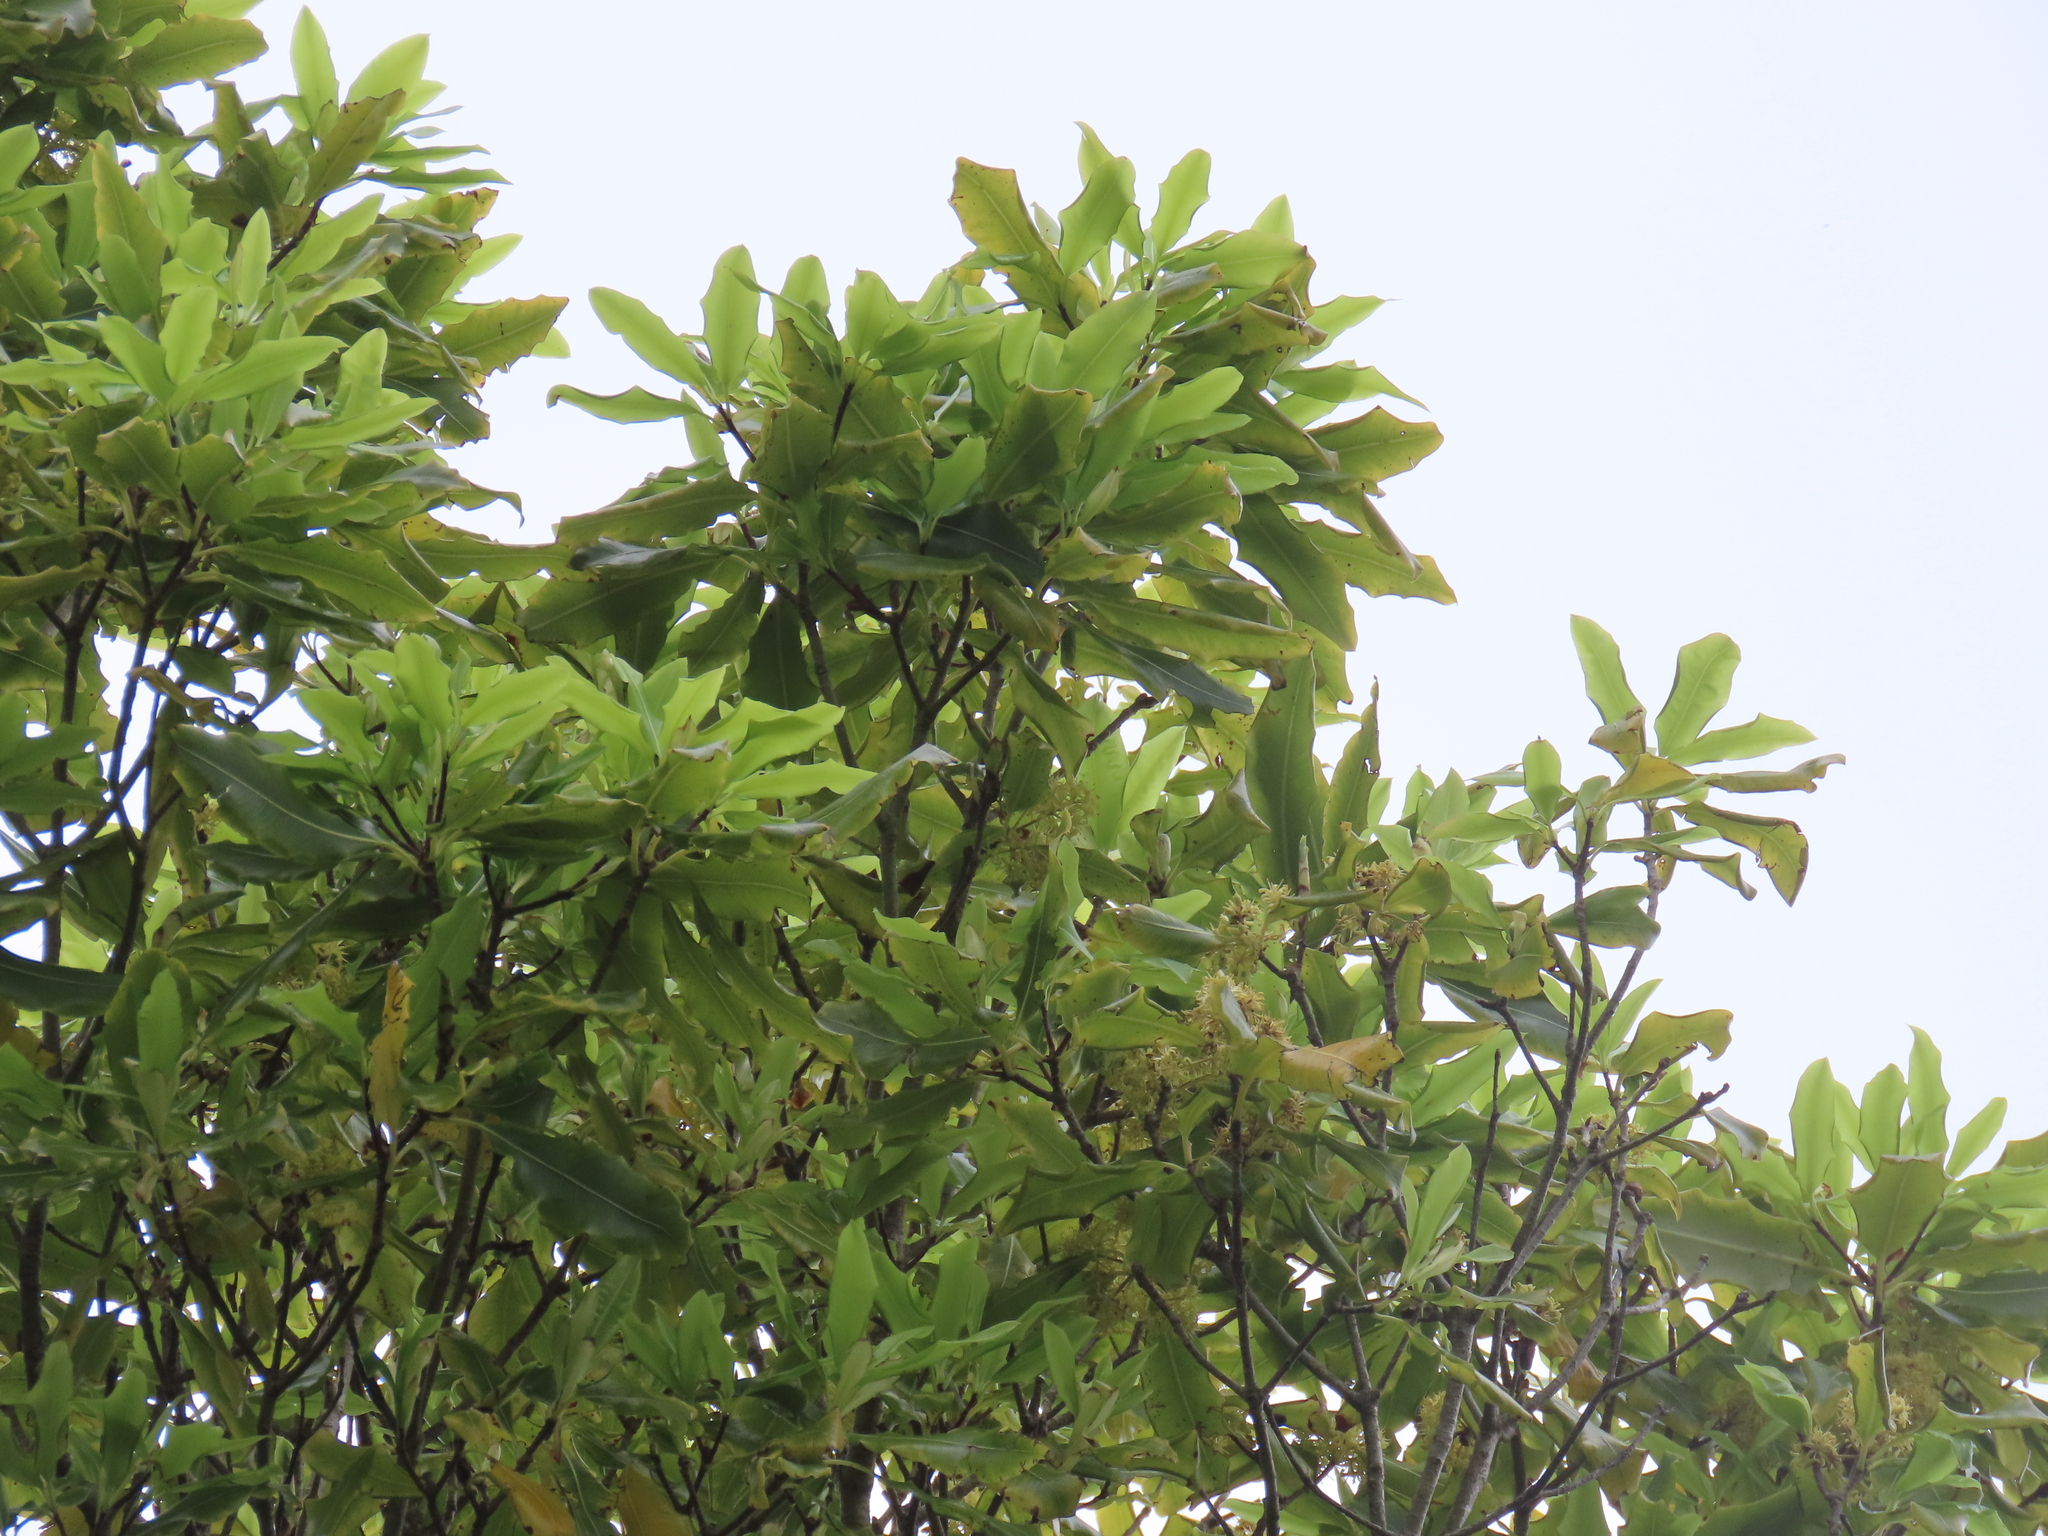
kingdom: Plantae
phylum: Tracheophyta
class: Magnoliopsida
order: Apiales
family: Pittosporaceae
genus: Pittosporum
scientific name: Pittosporum eugenioides
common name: Lemonwood
